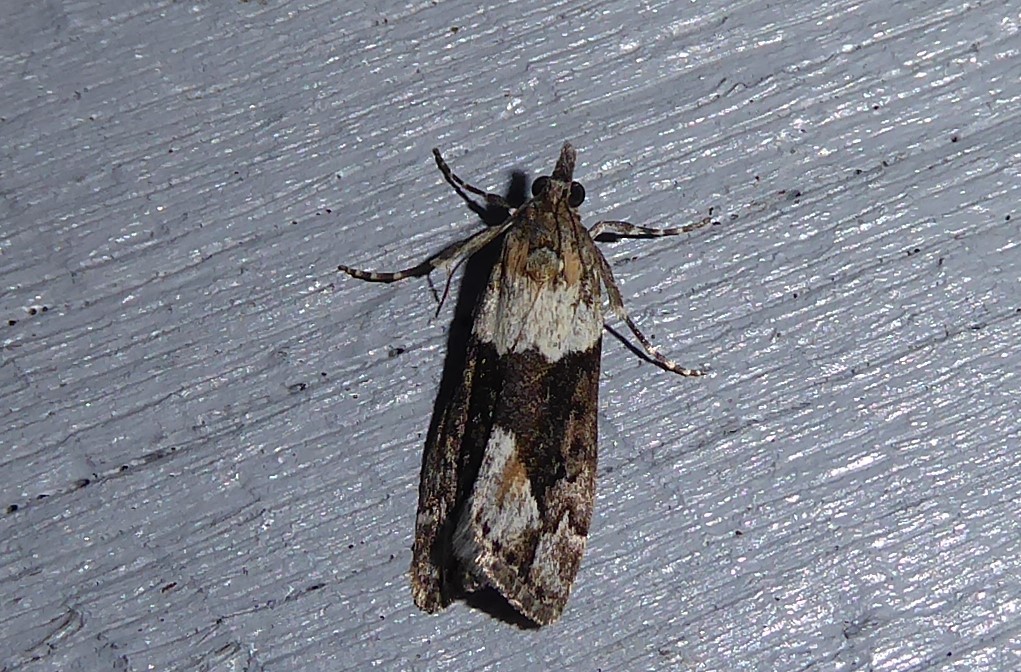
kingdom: Animalia
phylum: Arthropoda
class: Insecta
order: Lepidoptera
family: Crambidae
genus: Eudonia
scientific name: Eudonia submarginalis
